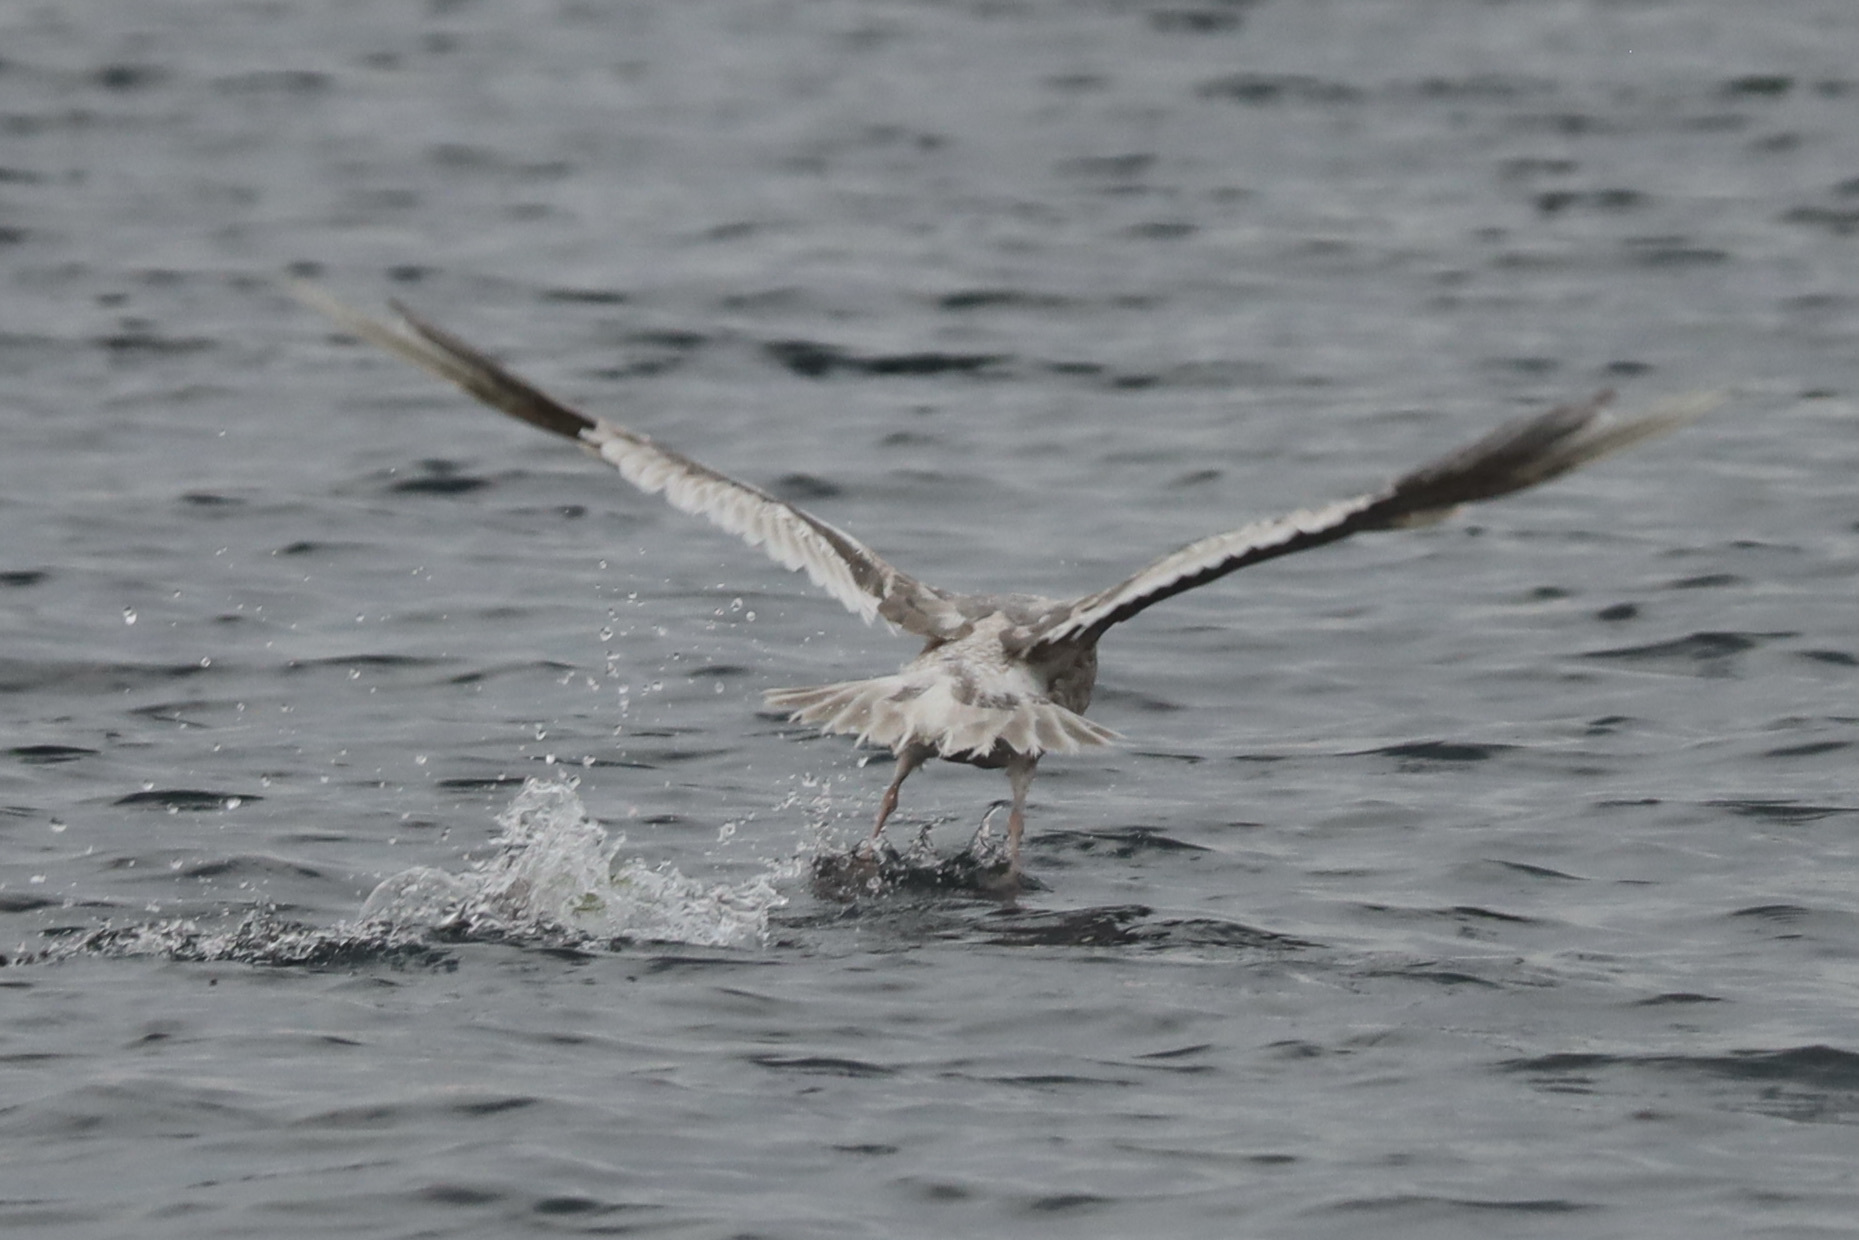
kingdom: Animalia
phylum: Chordata
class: Aves
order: Charadriiformes
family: Laridae
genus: Larus
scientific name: Larus
